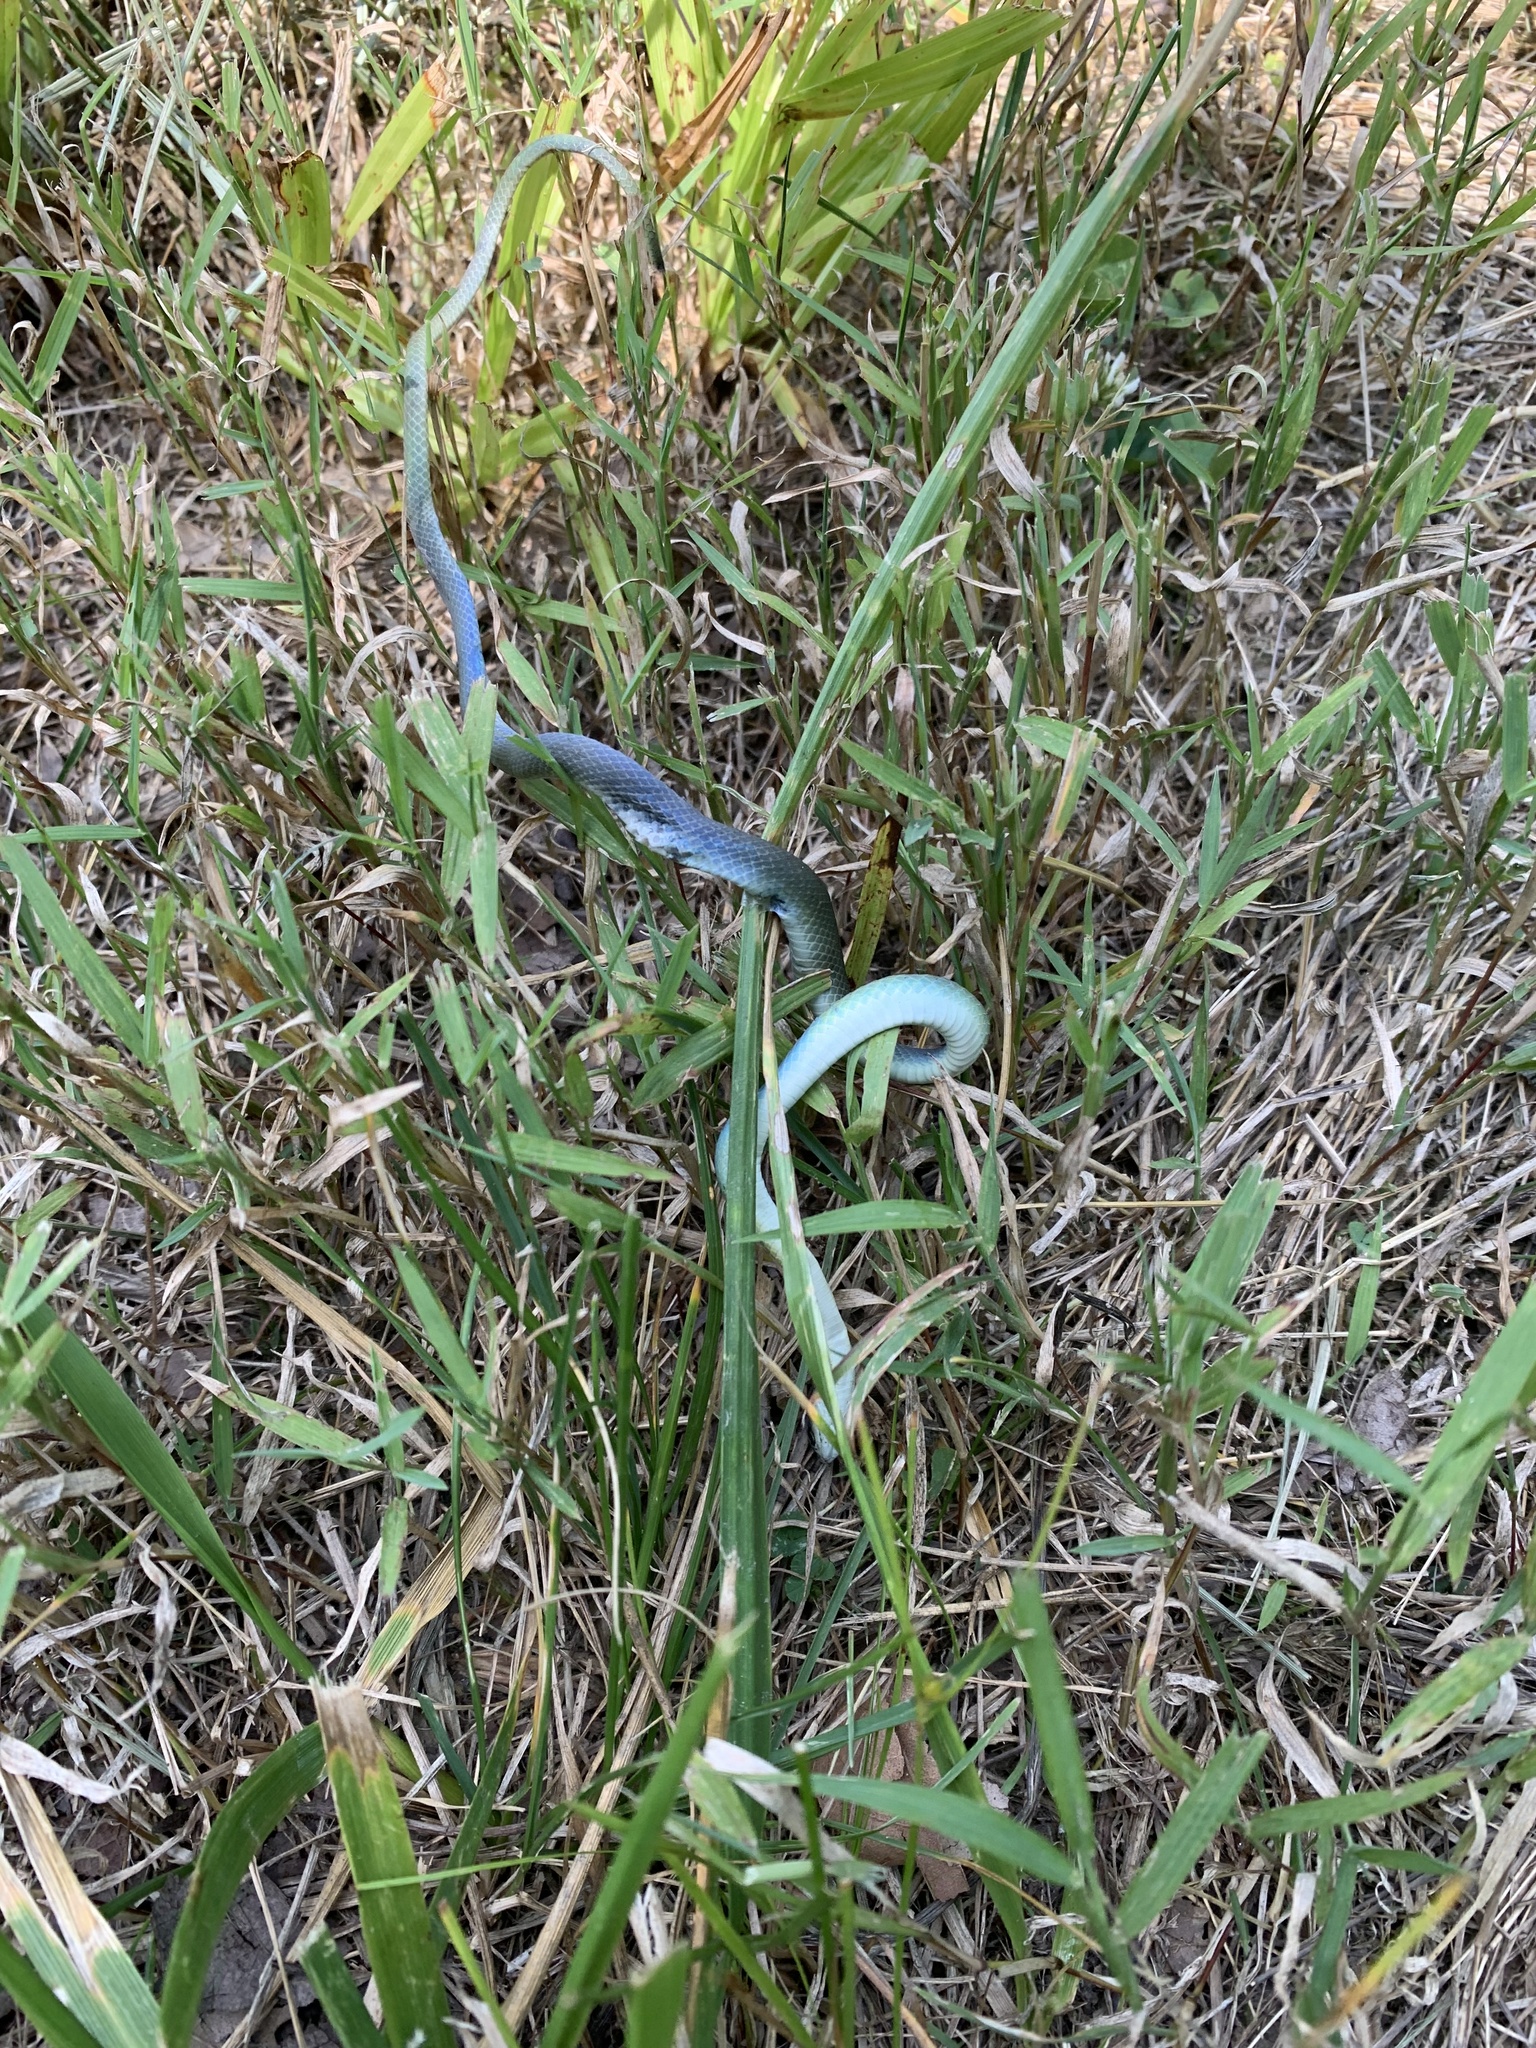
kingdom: Animalia
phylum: Chordata
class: Squamata
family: Colubridae
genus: Opheodrys
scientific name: Opheodrys aestivus
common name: Rough greensnake
